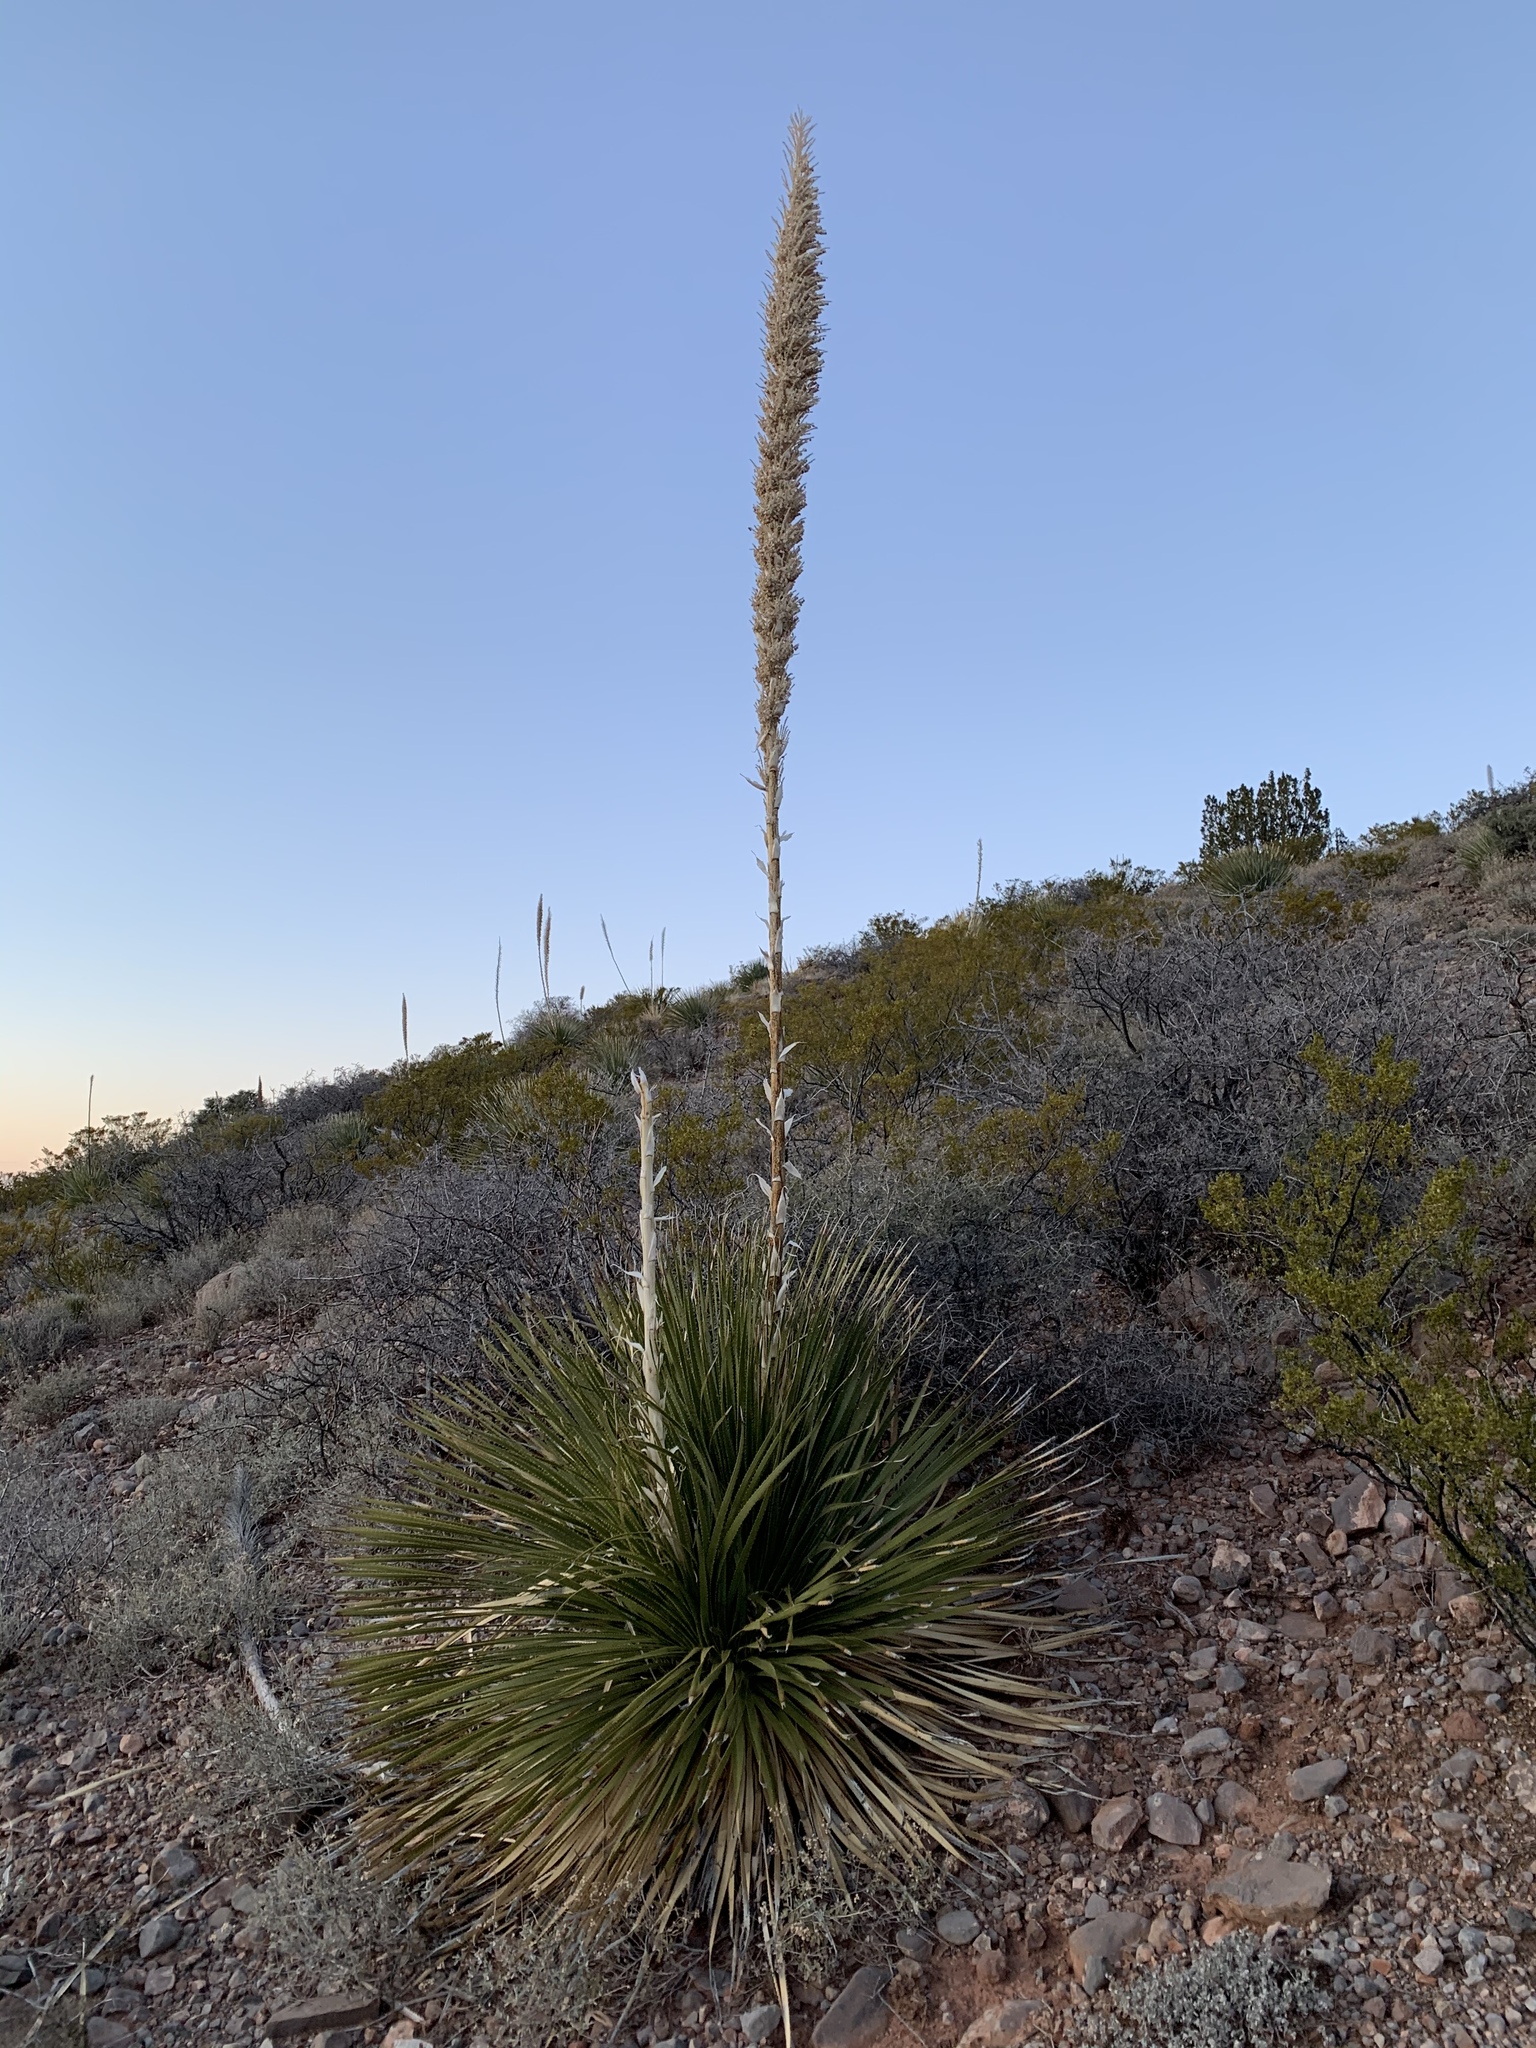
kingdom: Plantae
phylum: Tracheophyta
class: Liliopsida
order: Asparagales
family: Asparagaceae
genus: Dasylirion
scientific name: Dasylirion wheeleri
